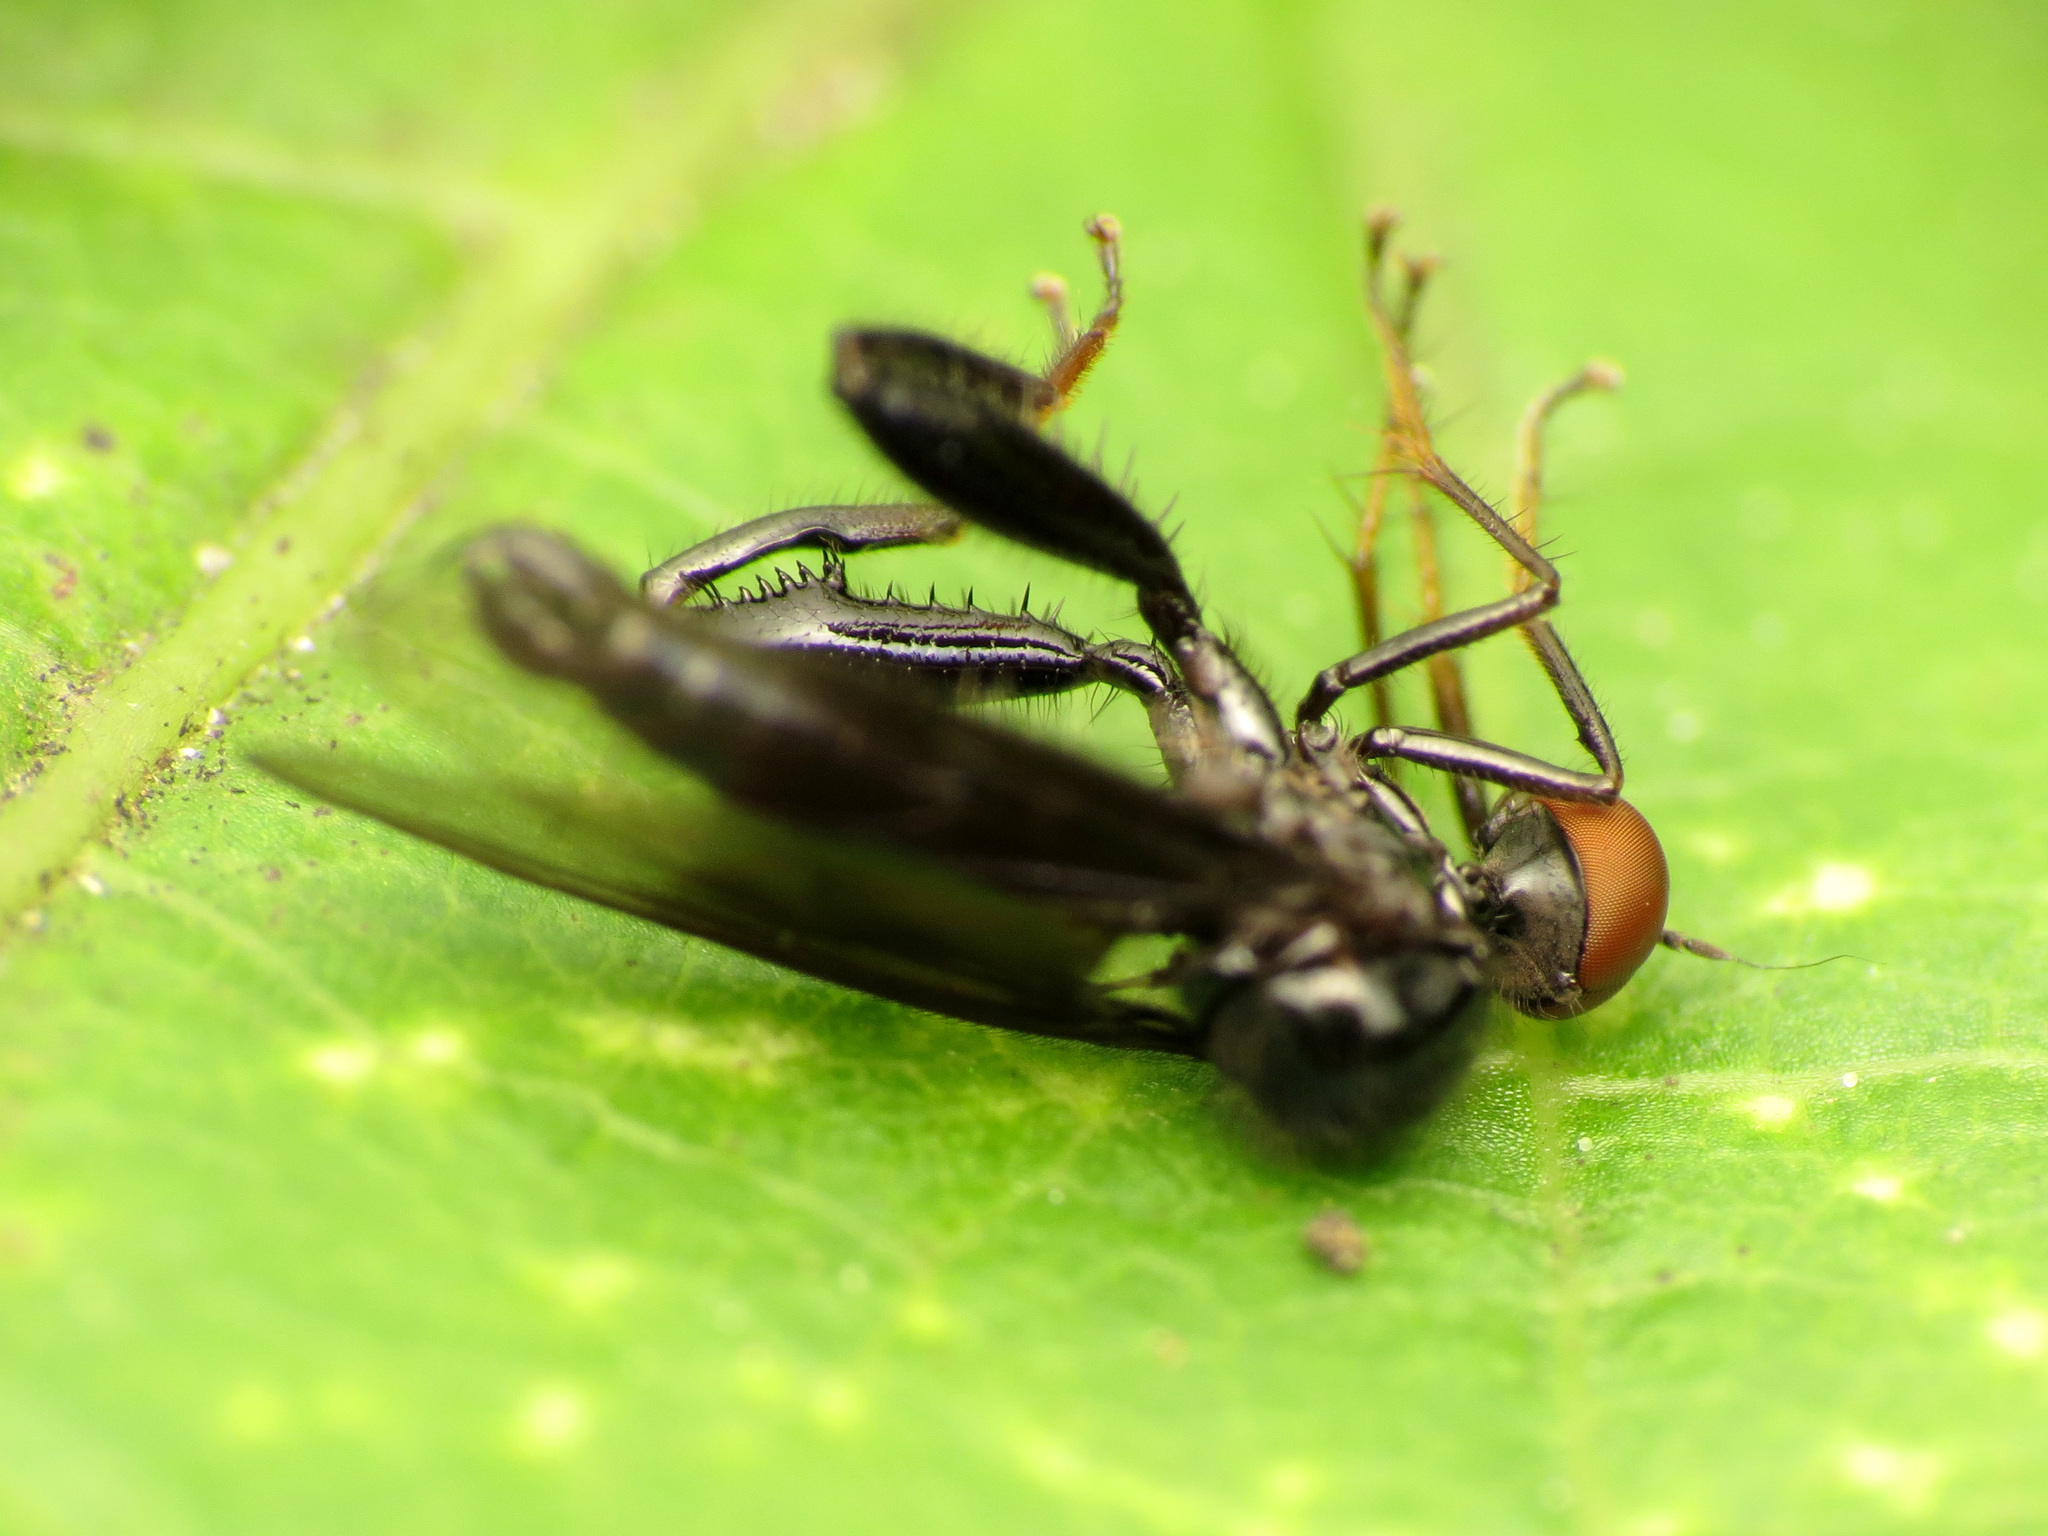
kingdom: Animalia
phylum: Arthropoda
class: Insecta
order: Diptera
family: Hybotidae
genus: Euhybus
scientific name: Euhybus purpureus
